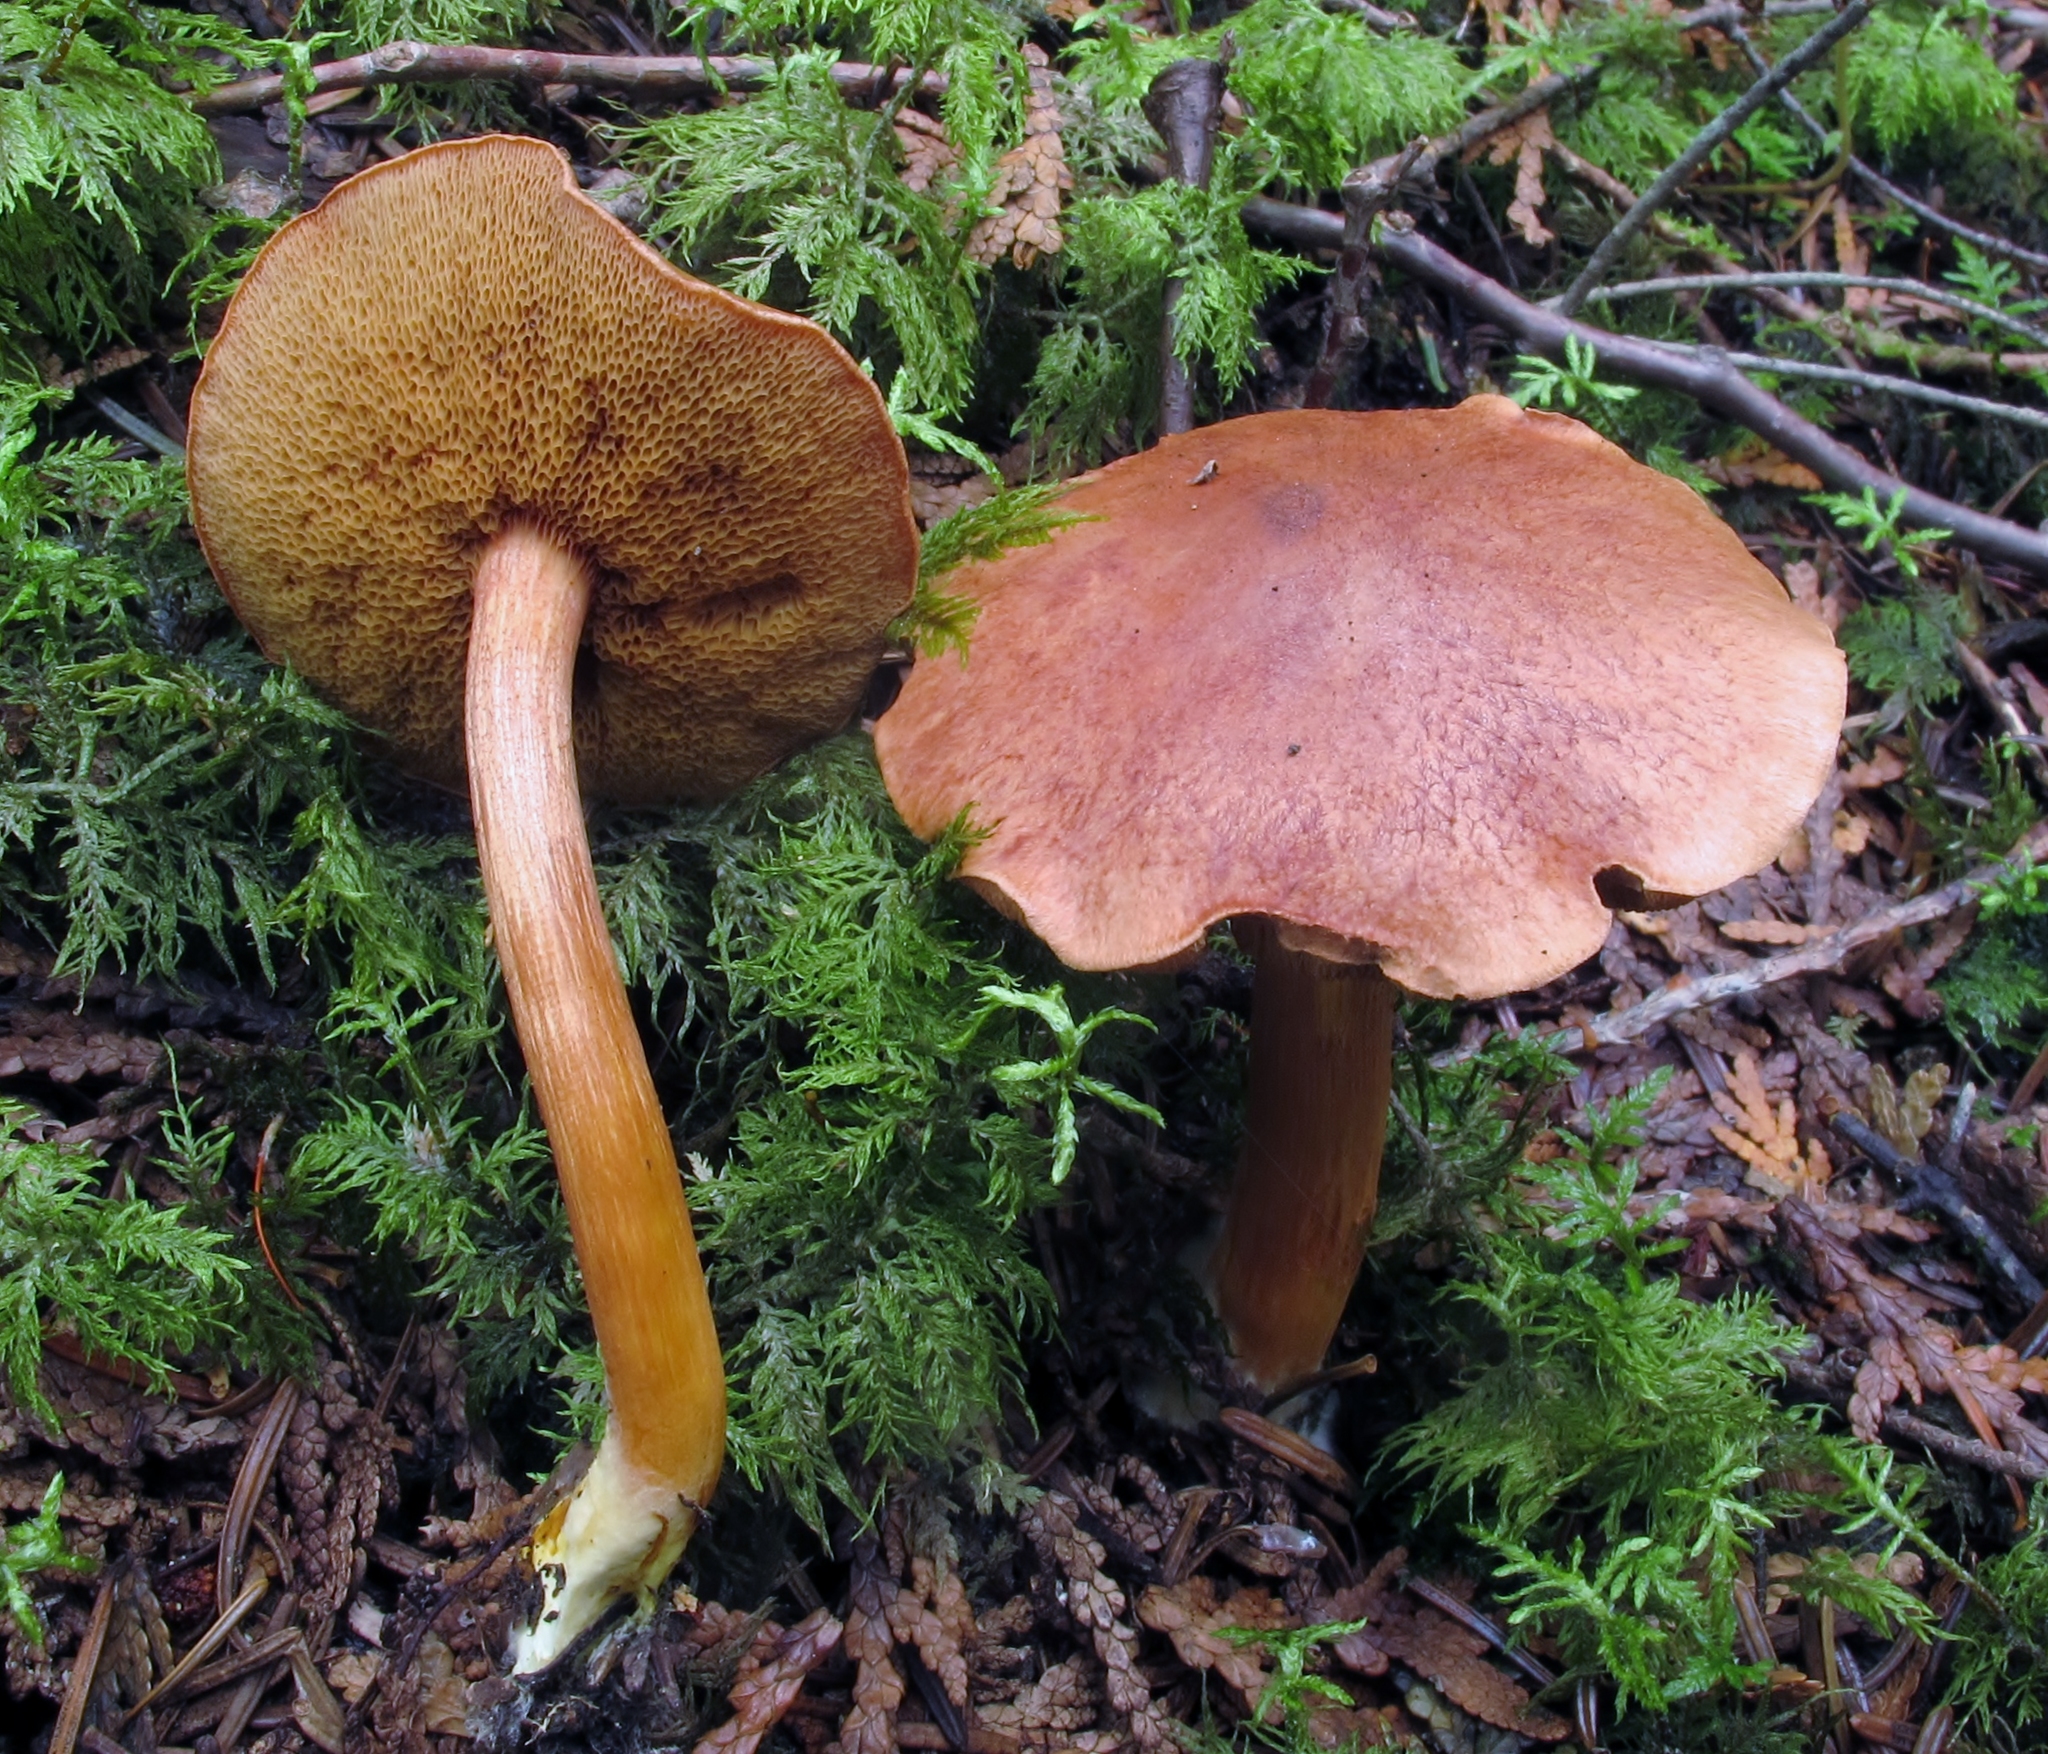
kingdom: Fungi
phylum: Basidiomycota
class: Agaricomycetes
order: Boletales
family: Boletaceae
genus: Chalciporus
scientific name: Chalciporus piperatus
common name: Peppery bolete
